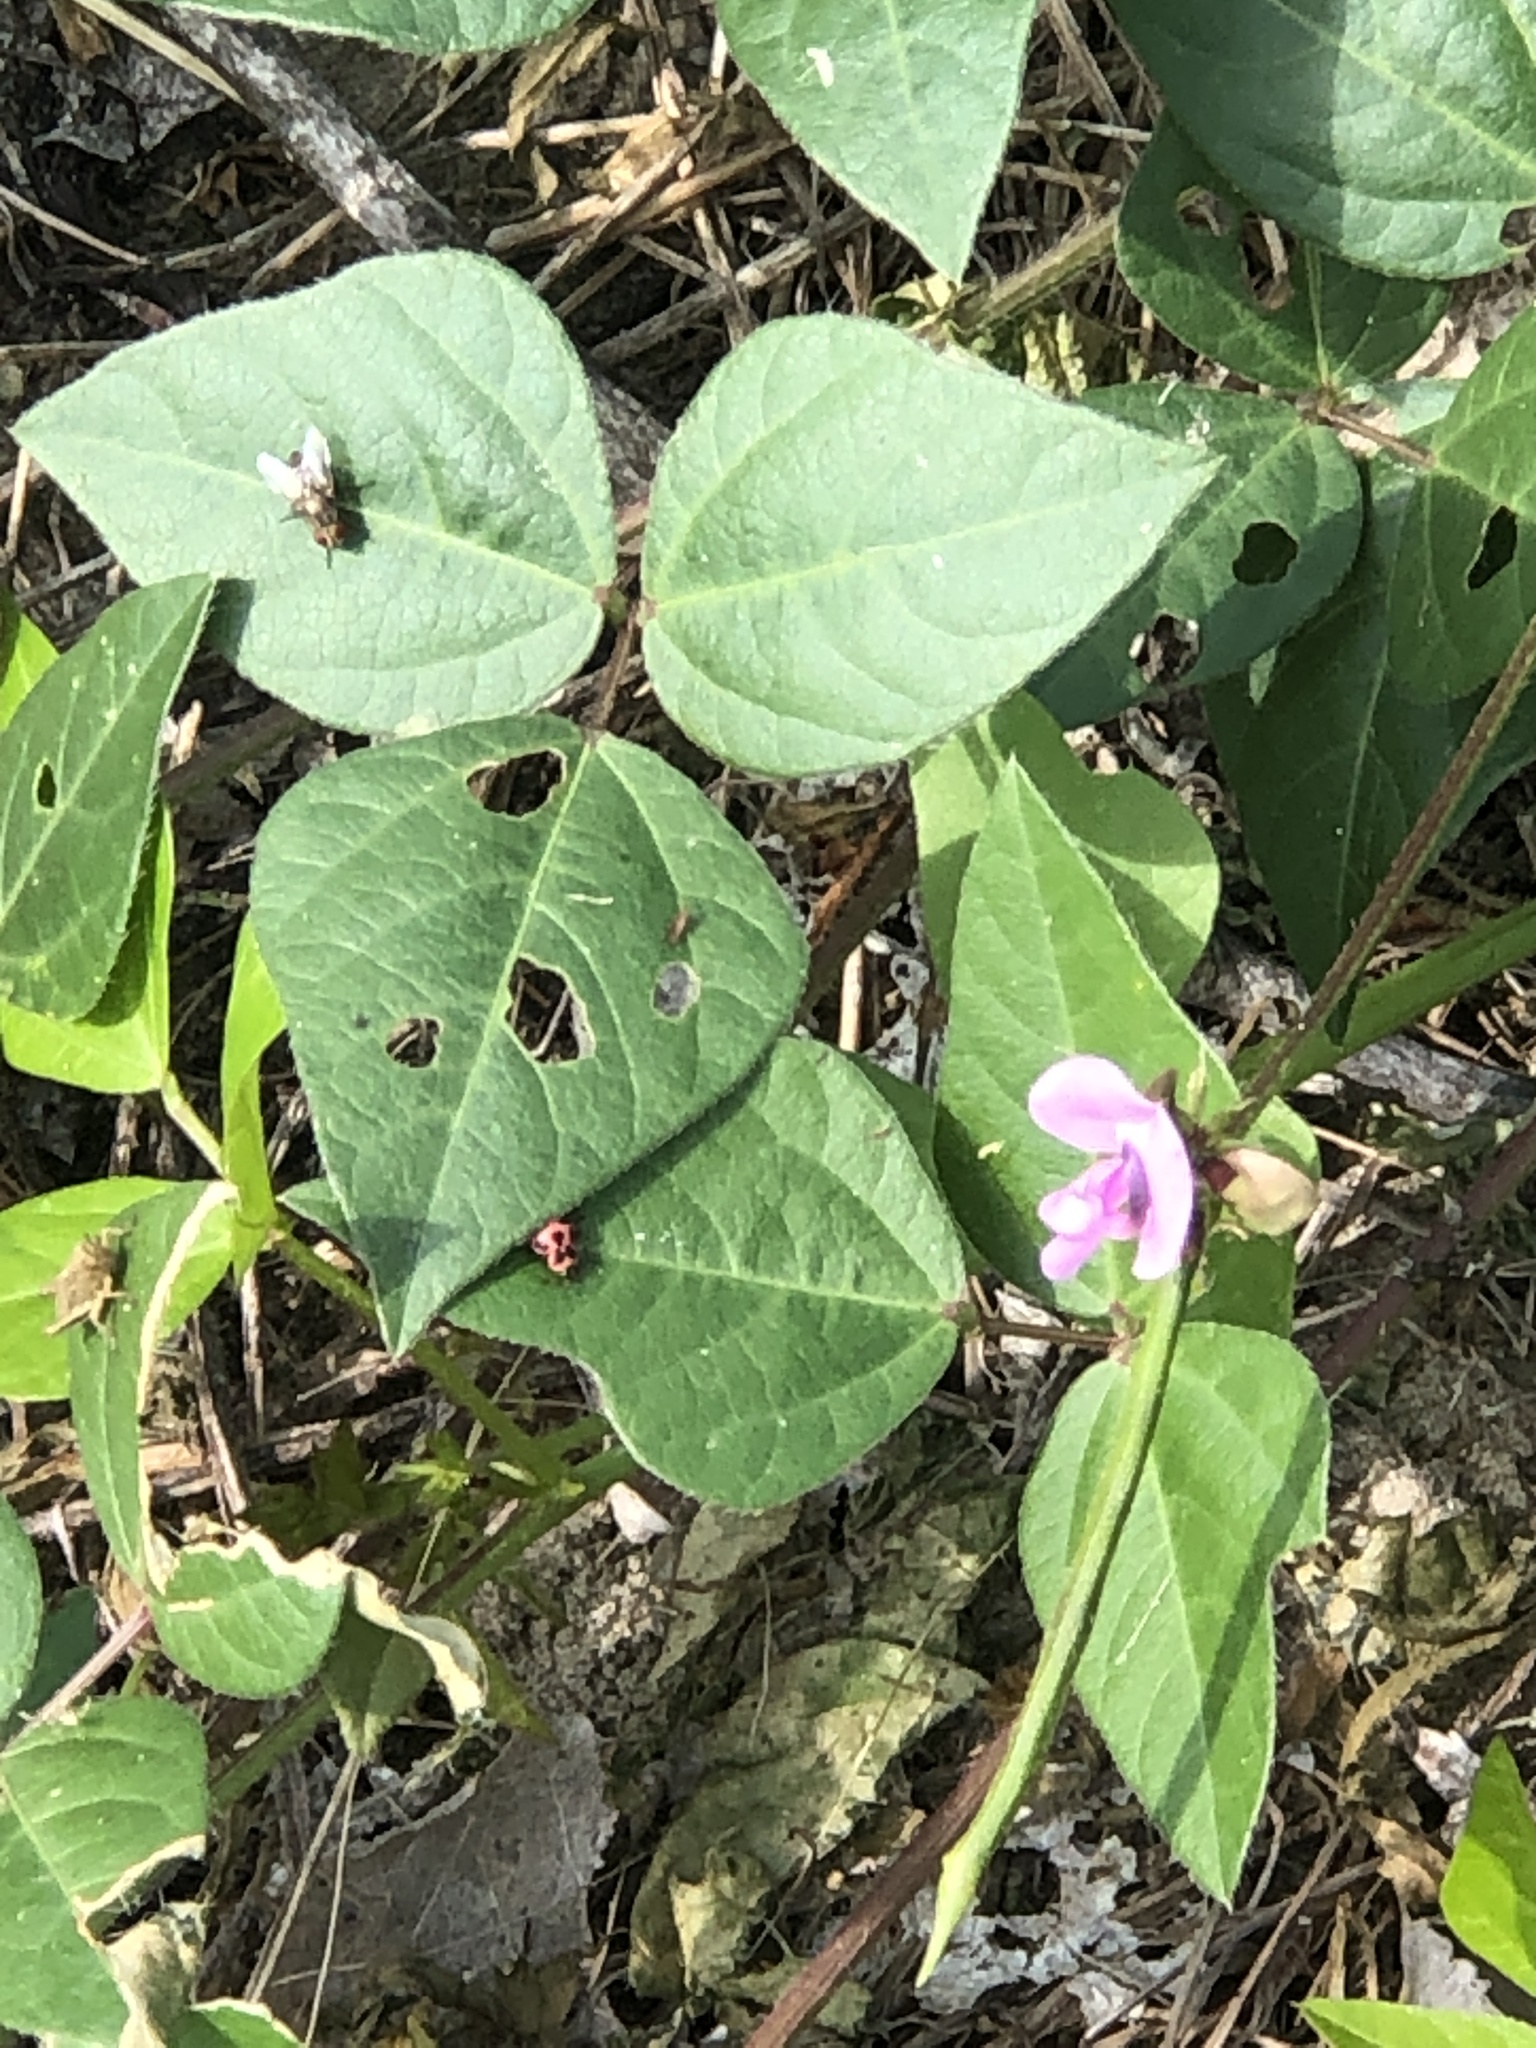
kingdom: Plantae
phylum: Tracheophyta
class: Magnoliopsida
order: Fabales
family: Fabaceae
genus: Strophostyles
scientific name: Strophostyles helvola
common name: Trailing wild bean
